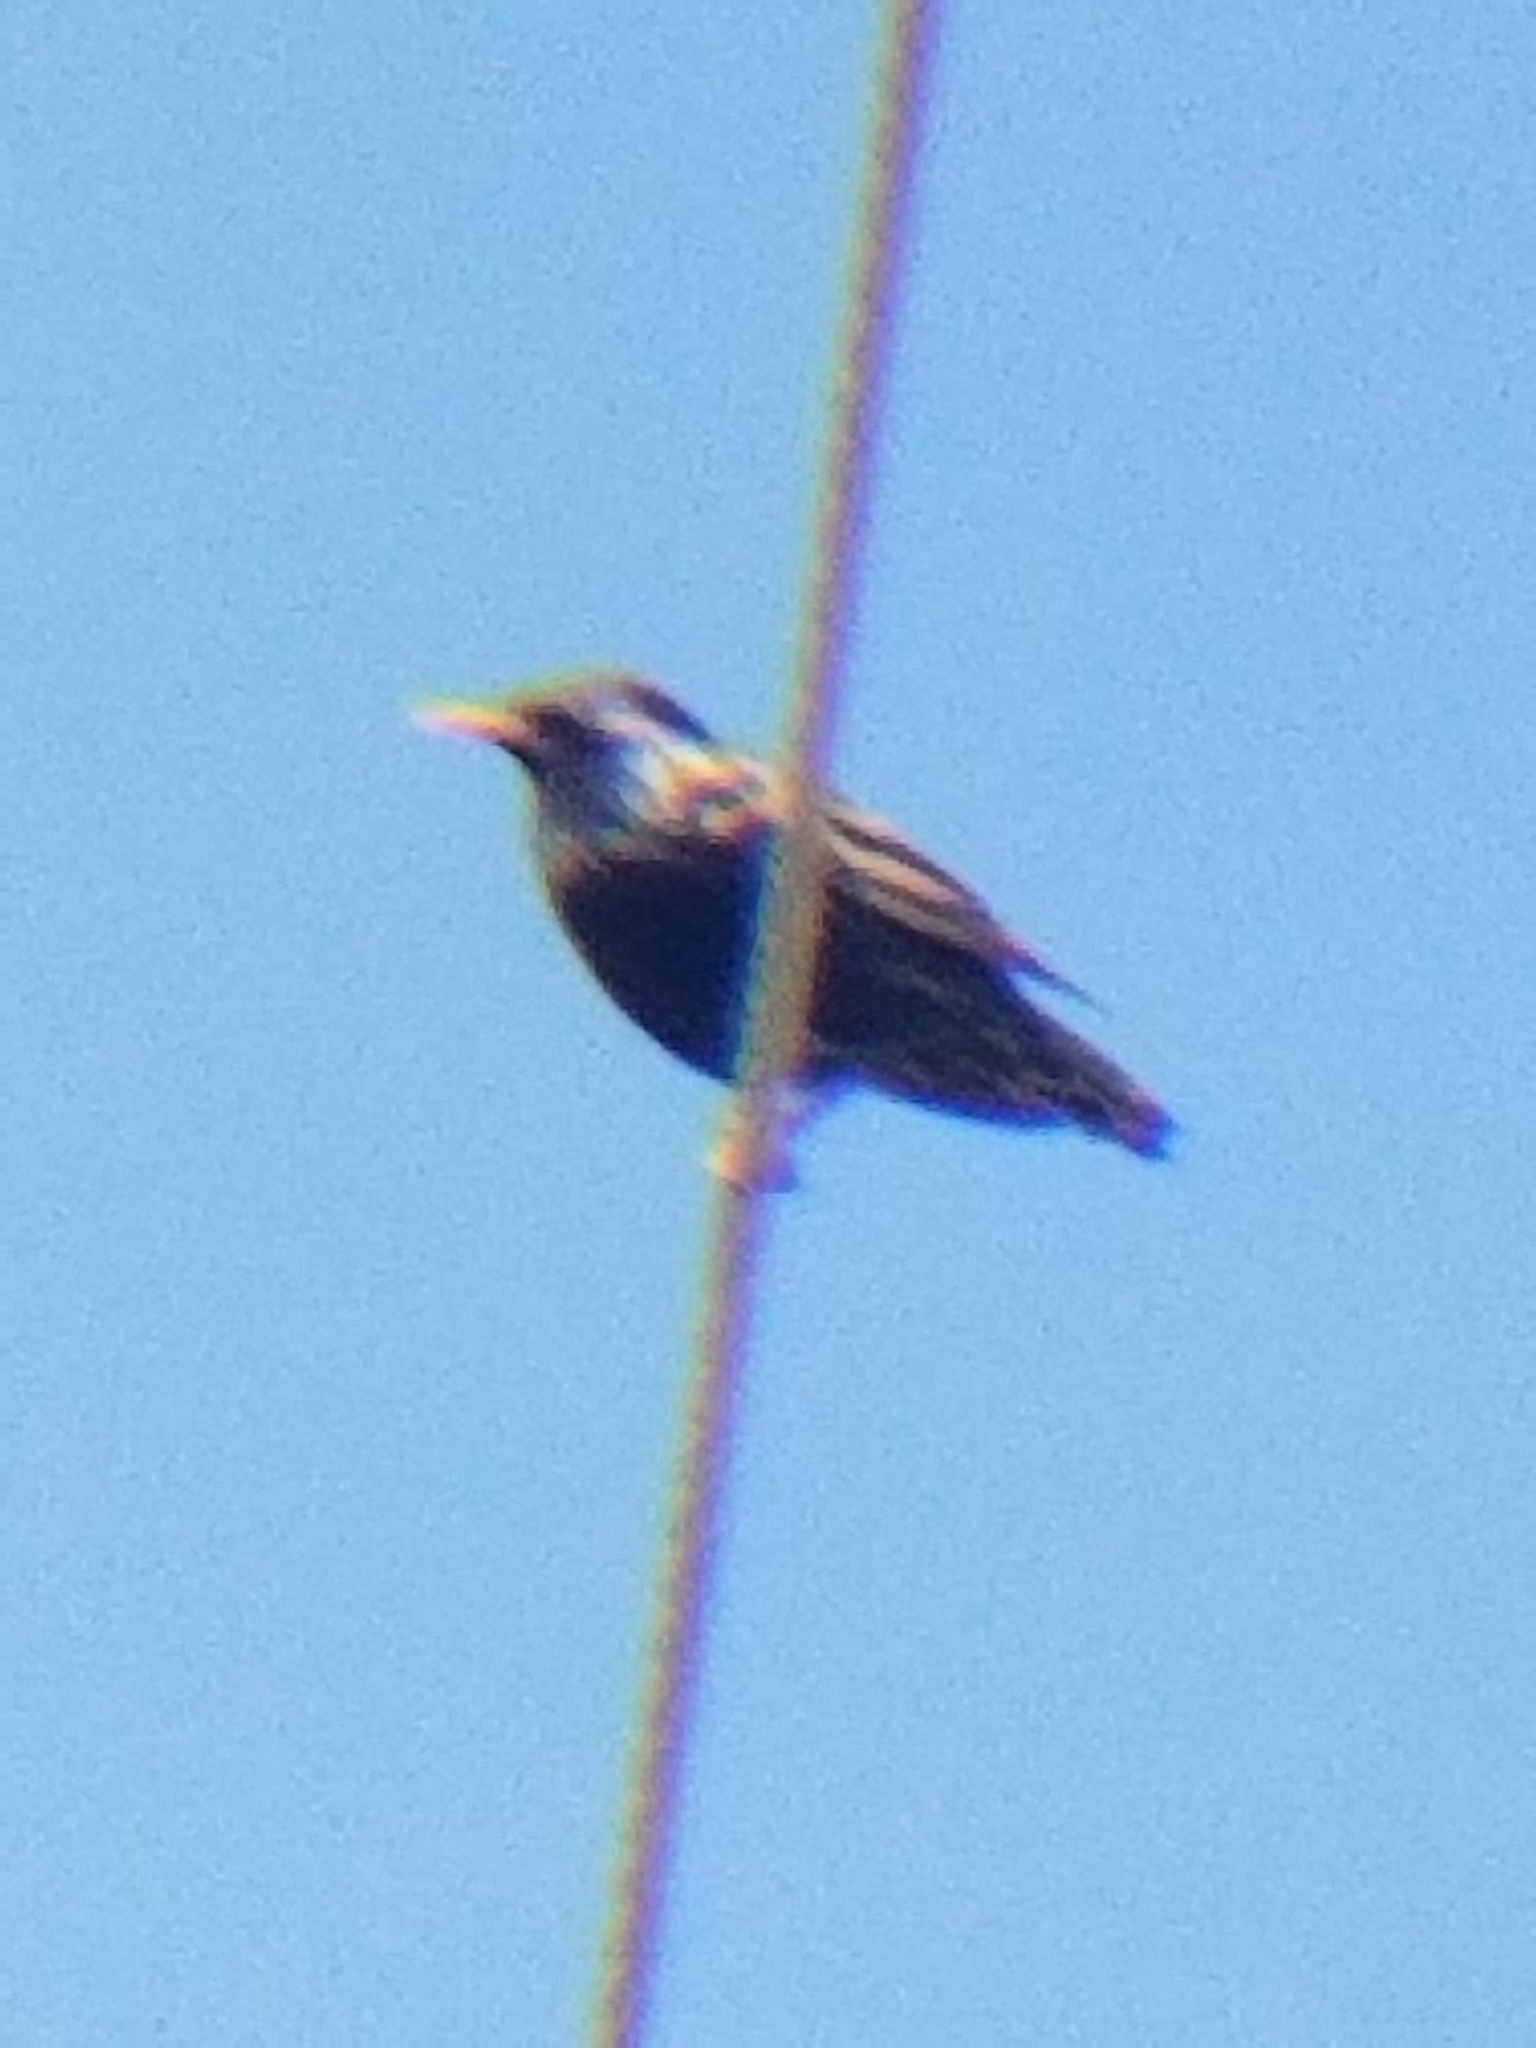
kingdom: Animalia
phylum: Chordata
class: Aves
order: Passeriformes
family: Sturnidae
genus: Sturnus
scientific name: Sturnus vulgaris
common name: Common starling
